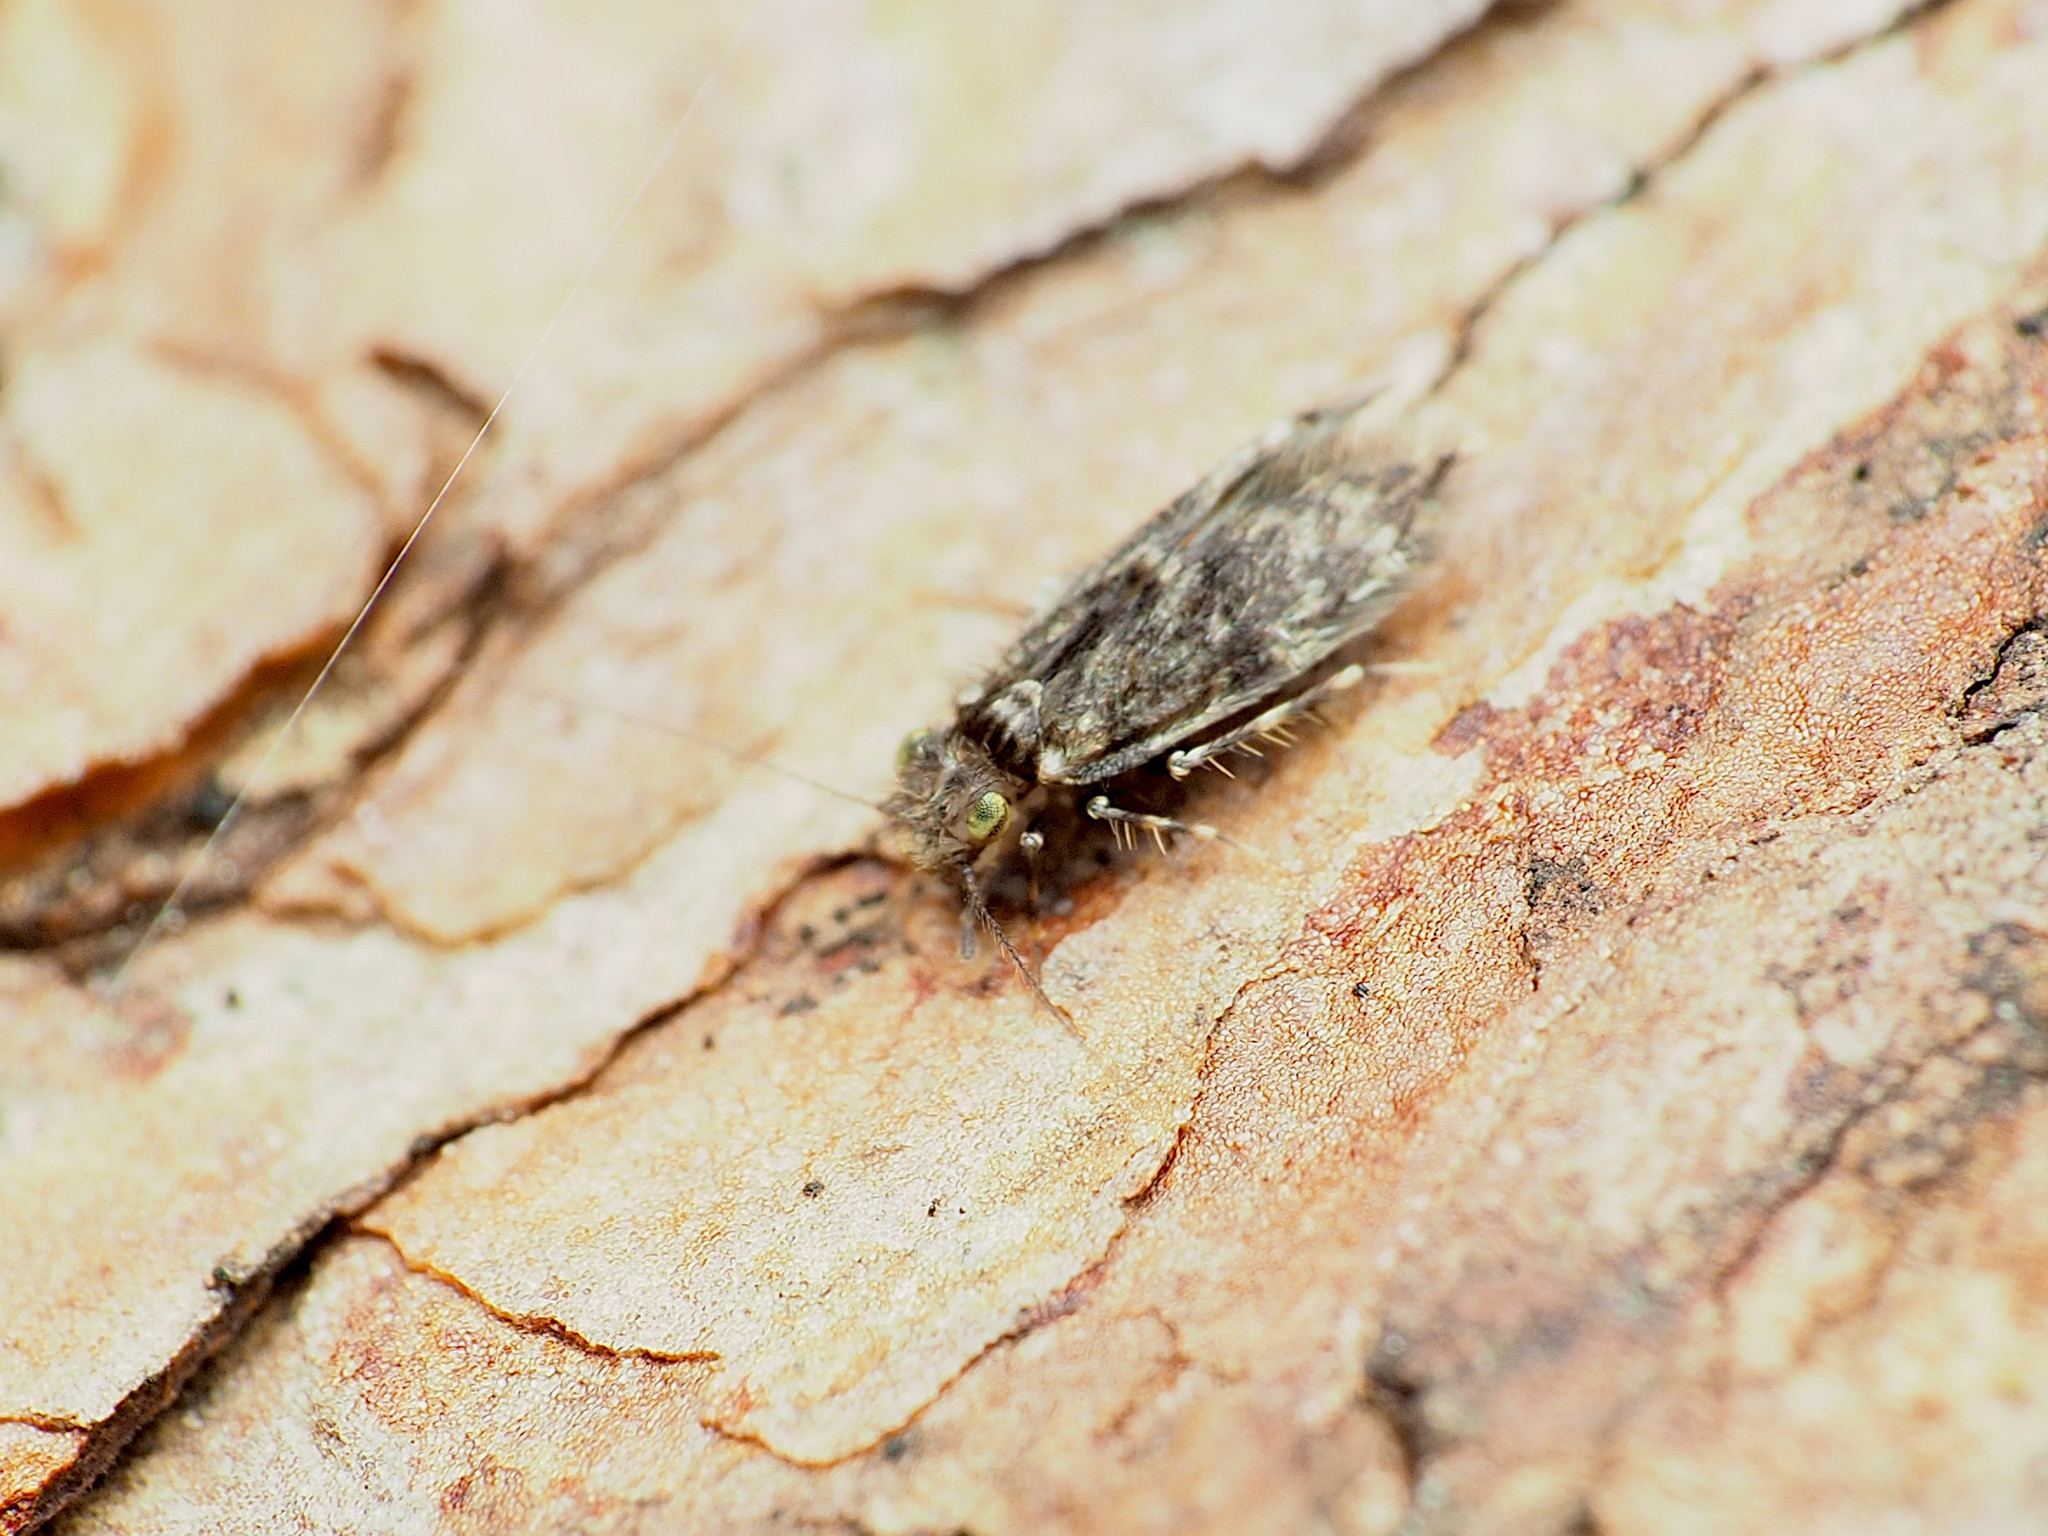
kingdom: Animalia
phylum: Arthropoda
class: Insecta
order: Psocodea
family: Lepidopsocidae
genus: Echmepteryx
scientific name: Echmepteryx hageni
